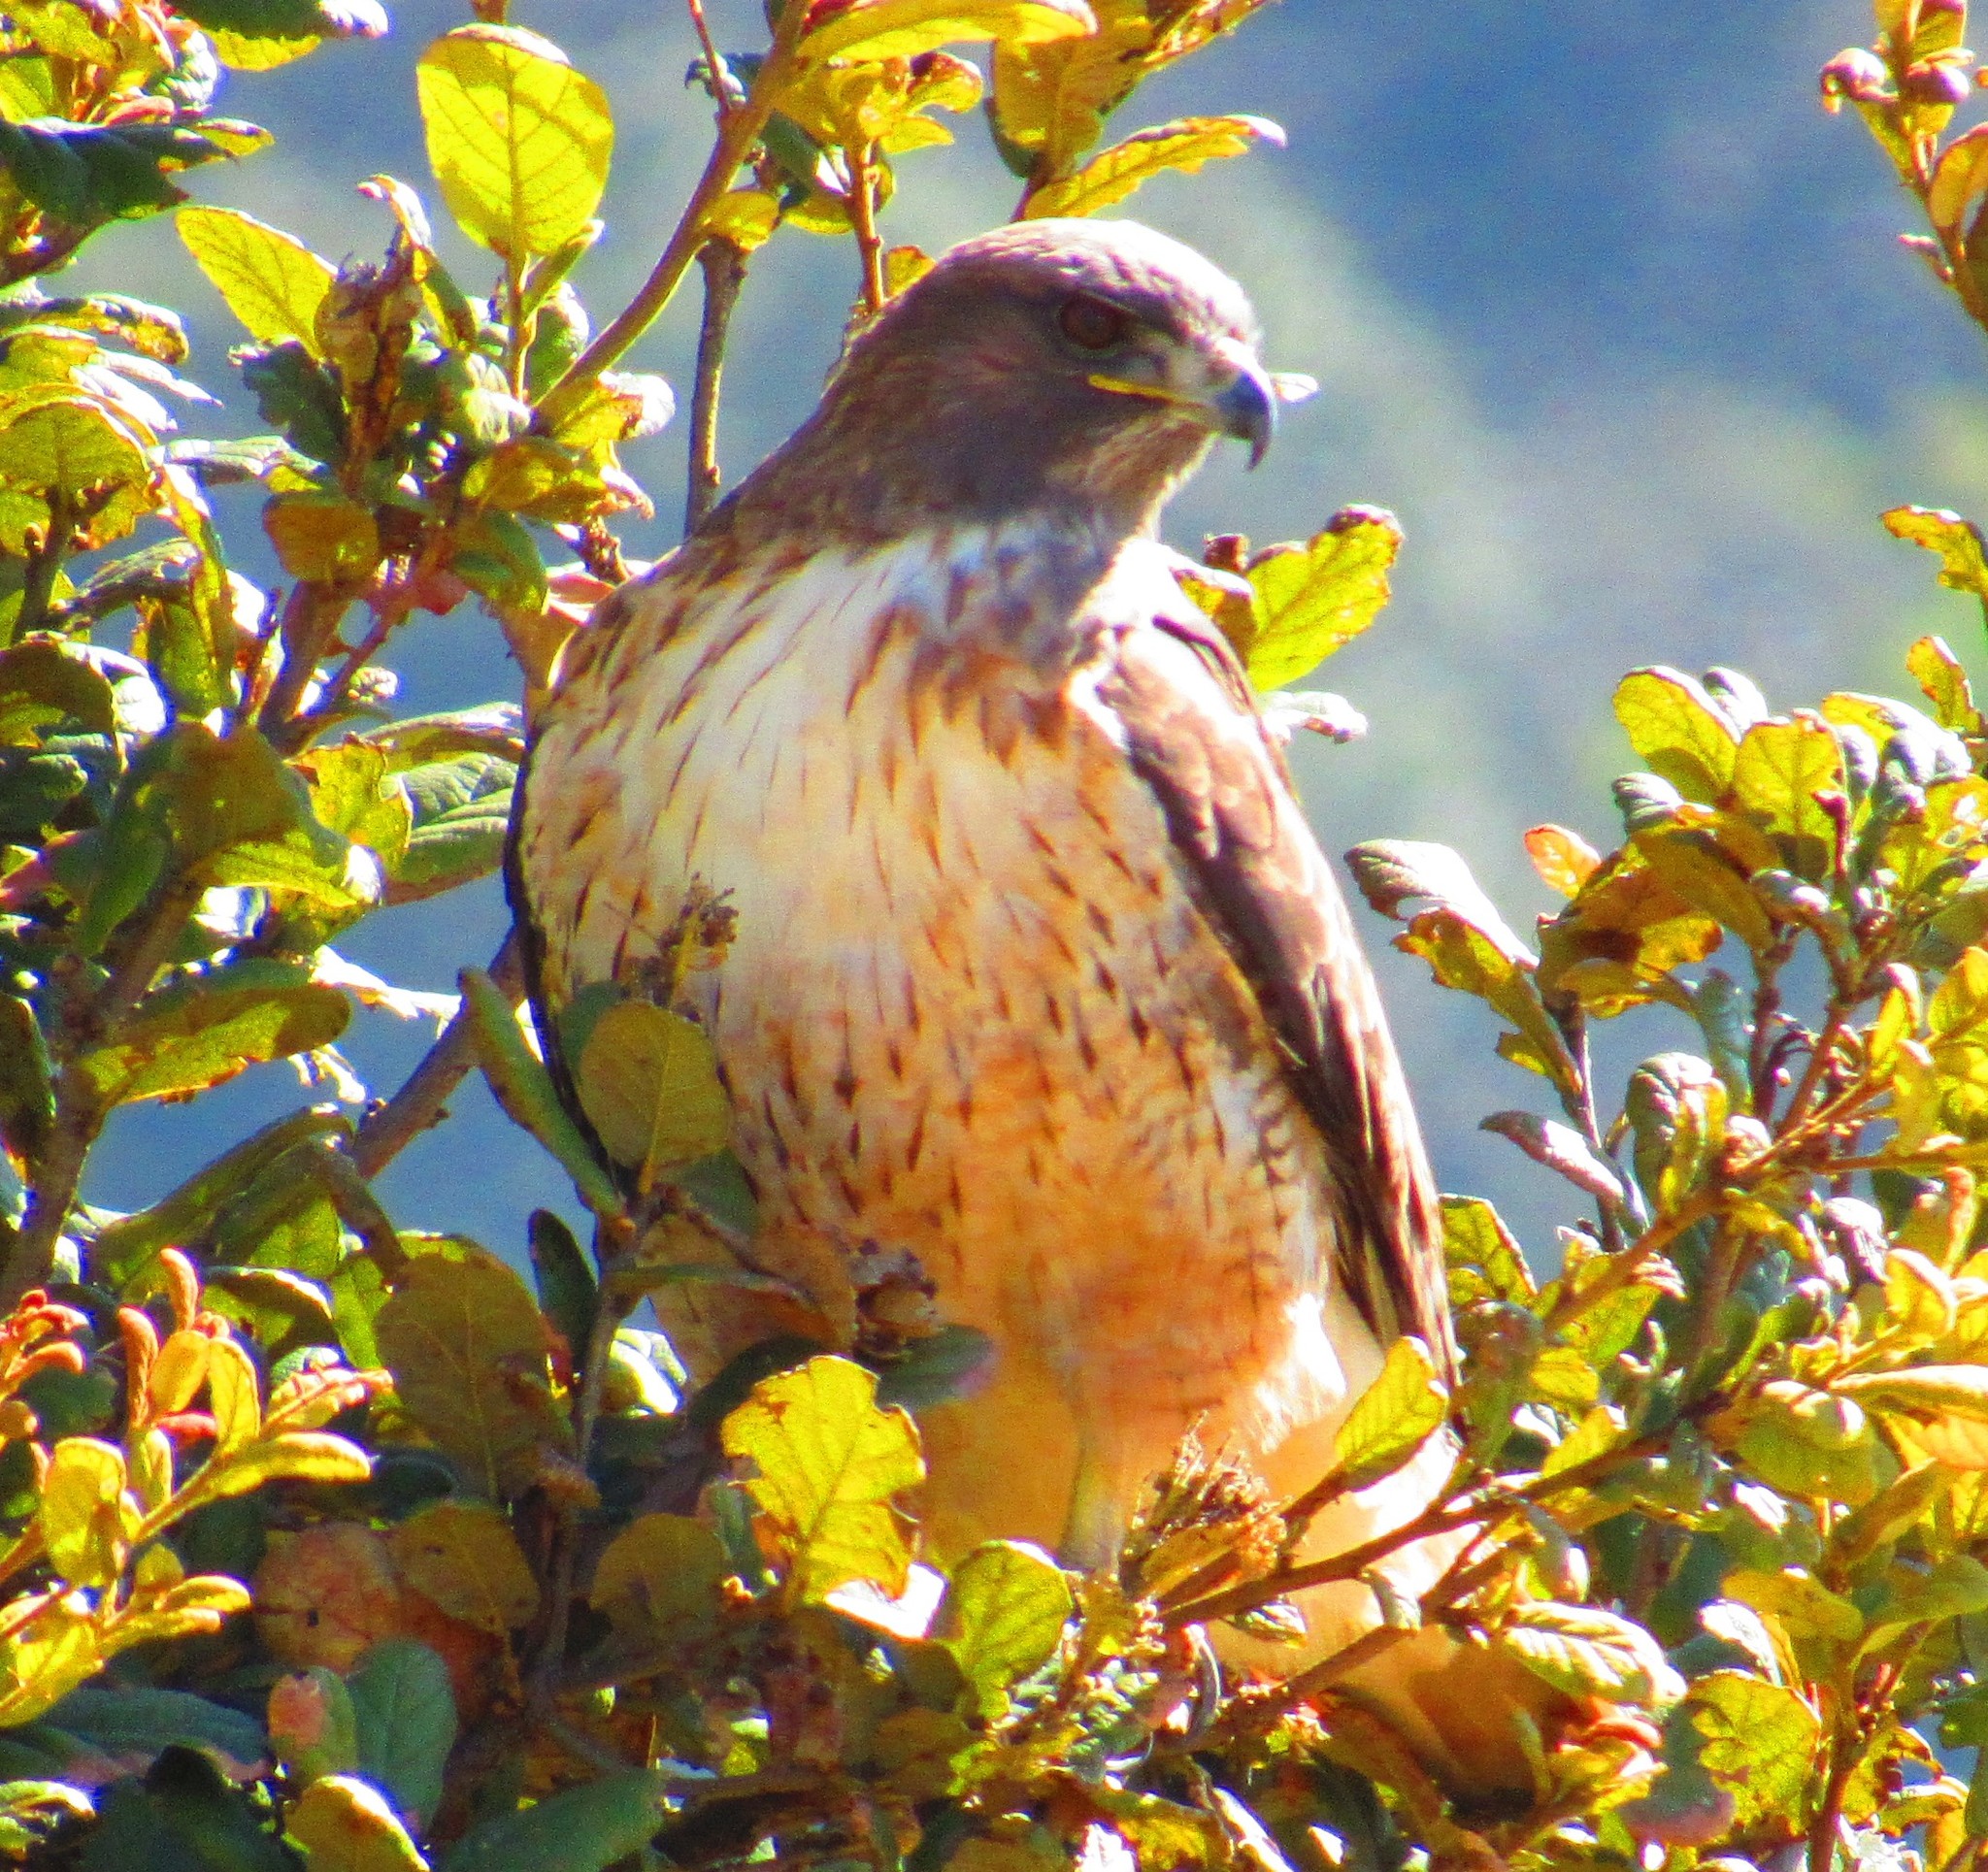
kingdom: Animalia
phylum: Chordata
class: Aves
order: Accipitriformes
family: Accipitridae
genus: Buteo
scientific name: Buteo jamaicensis
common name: Red-tailed hawk
